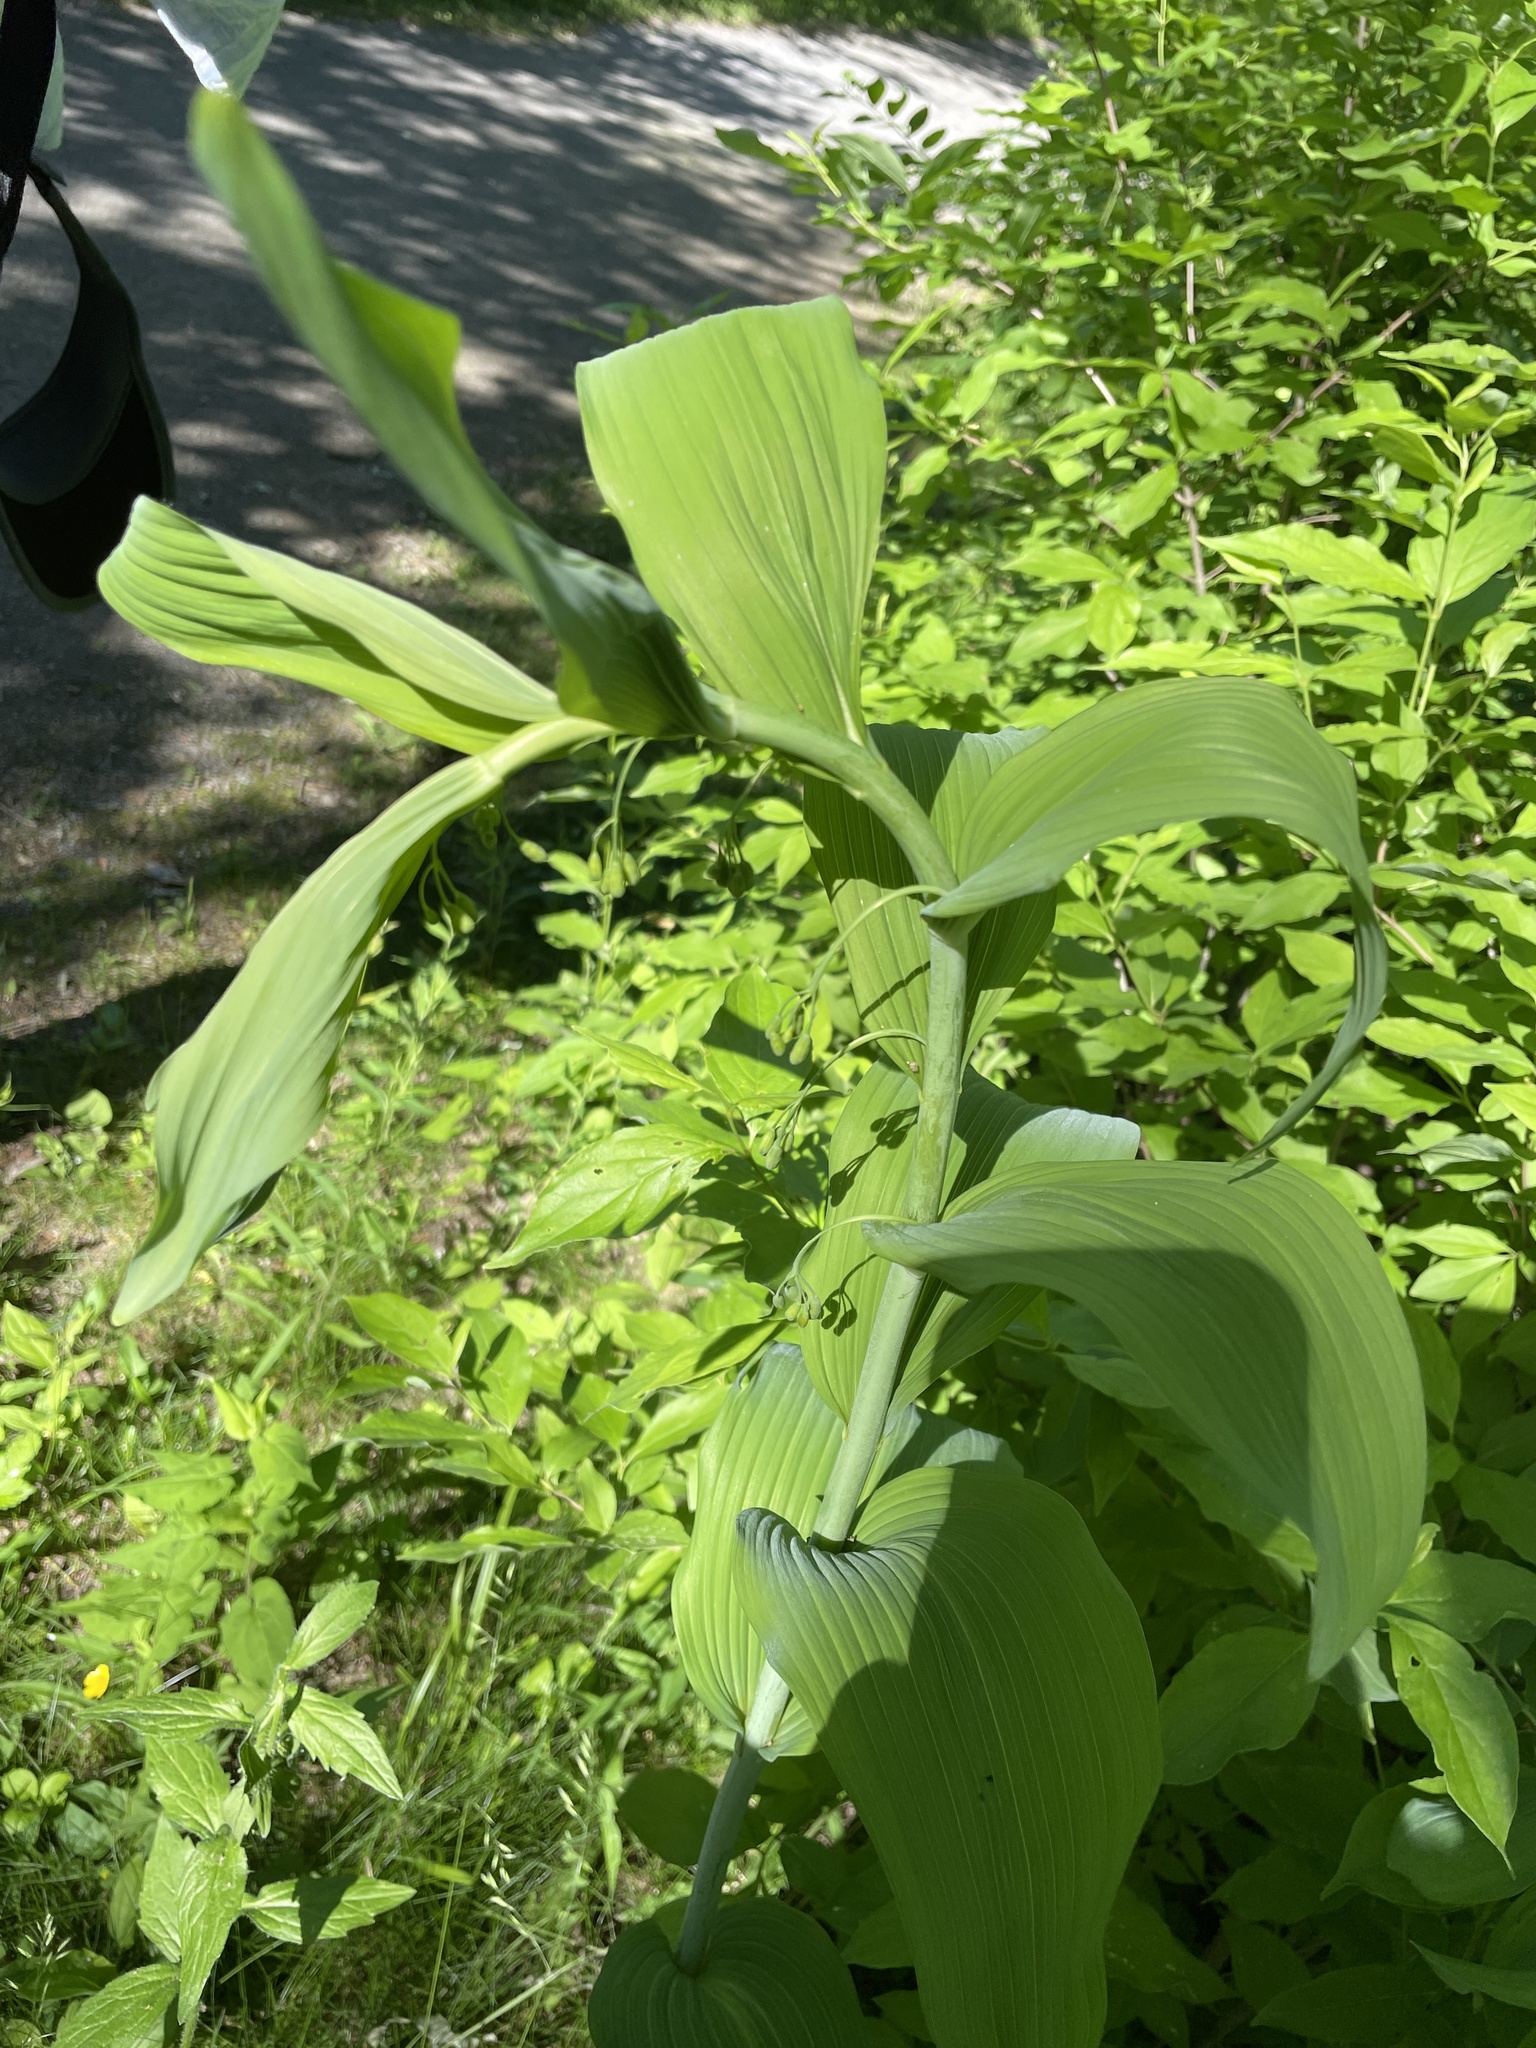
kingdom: Plantae
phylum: Tracheophyta
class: Liliopsida
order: Asparagales
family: Asparagaceae
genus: Polygonatum
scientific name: Polygonatum biflorum
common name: American solomon's-seal
